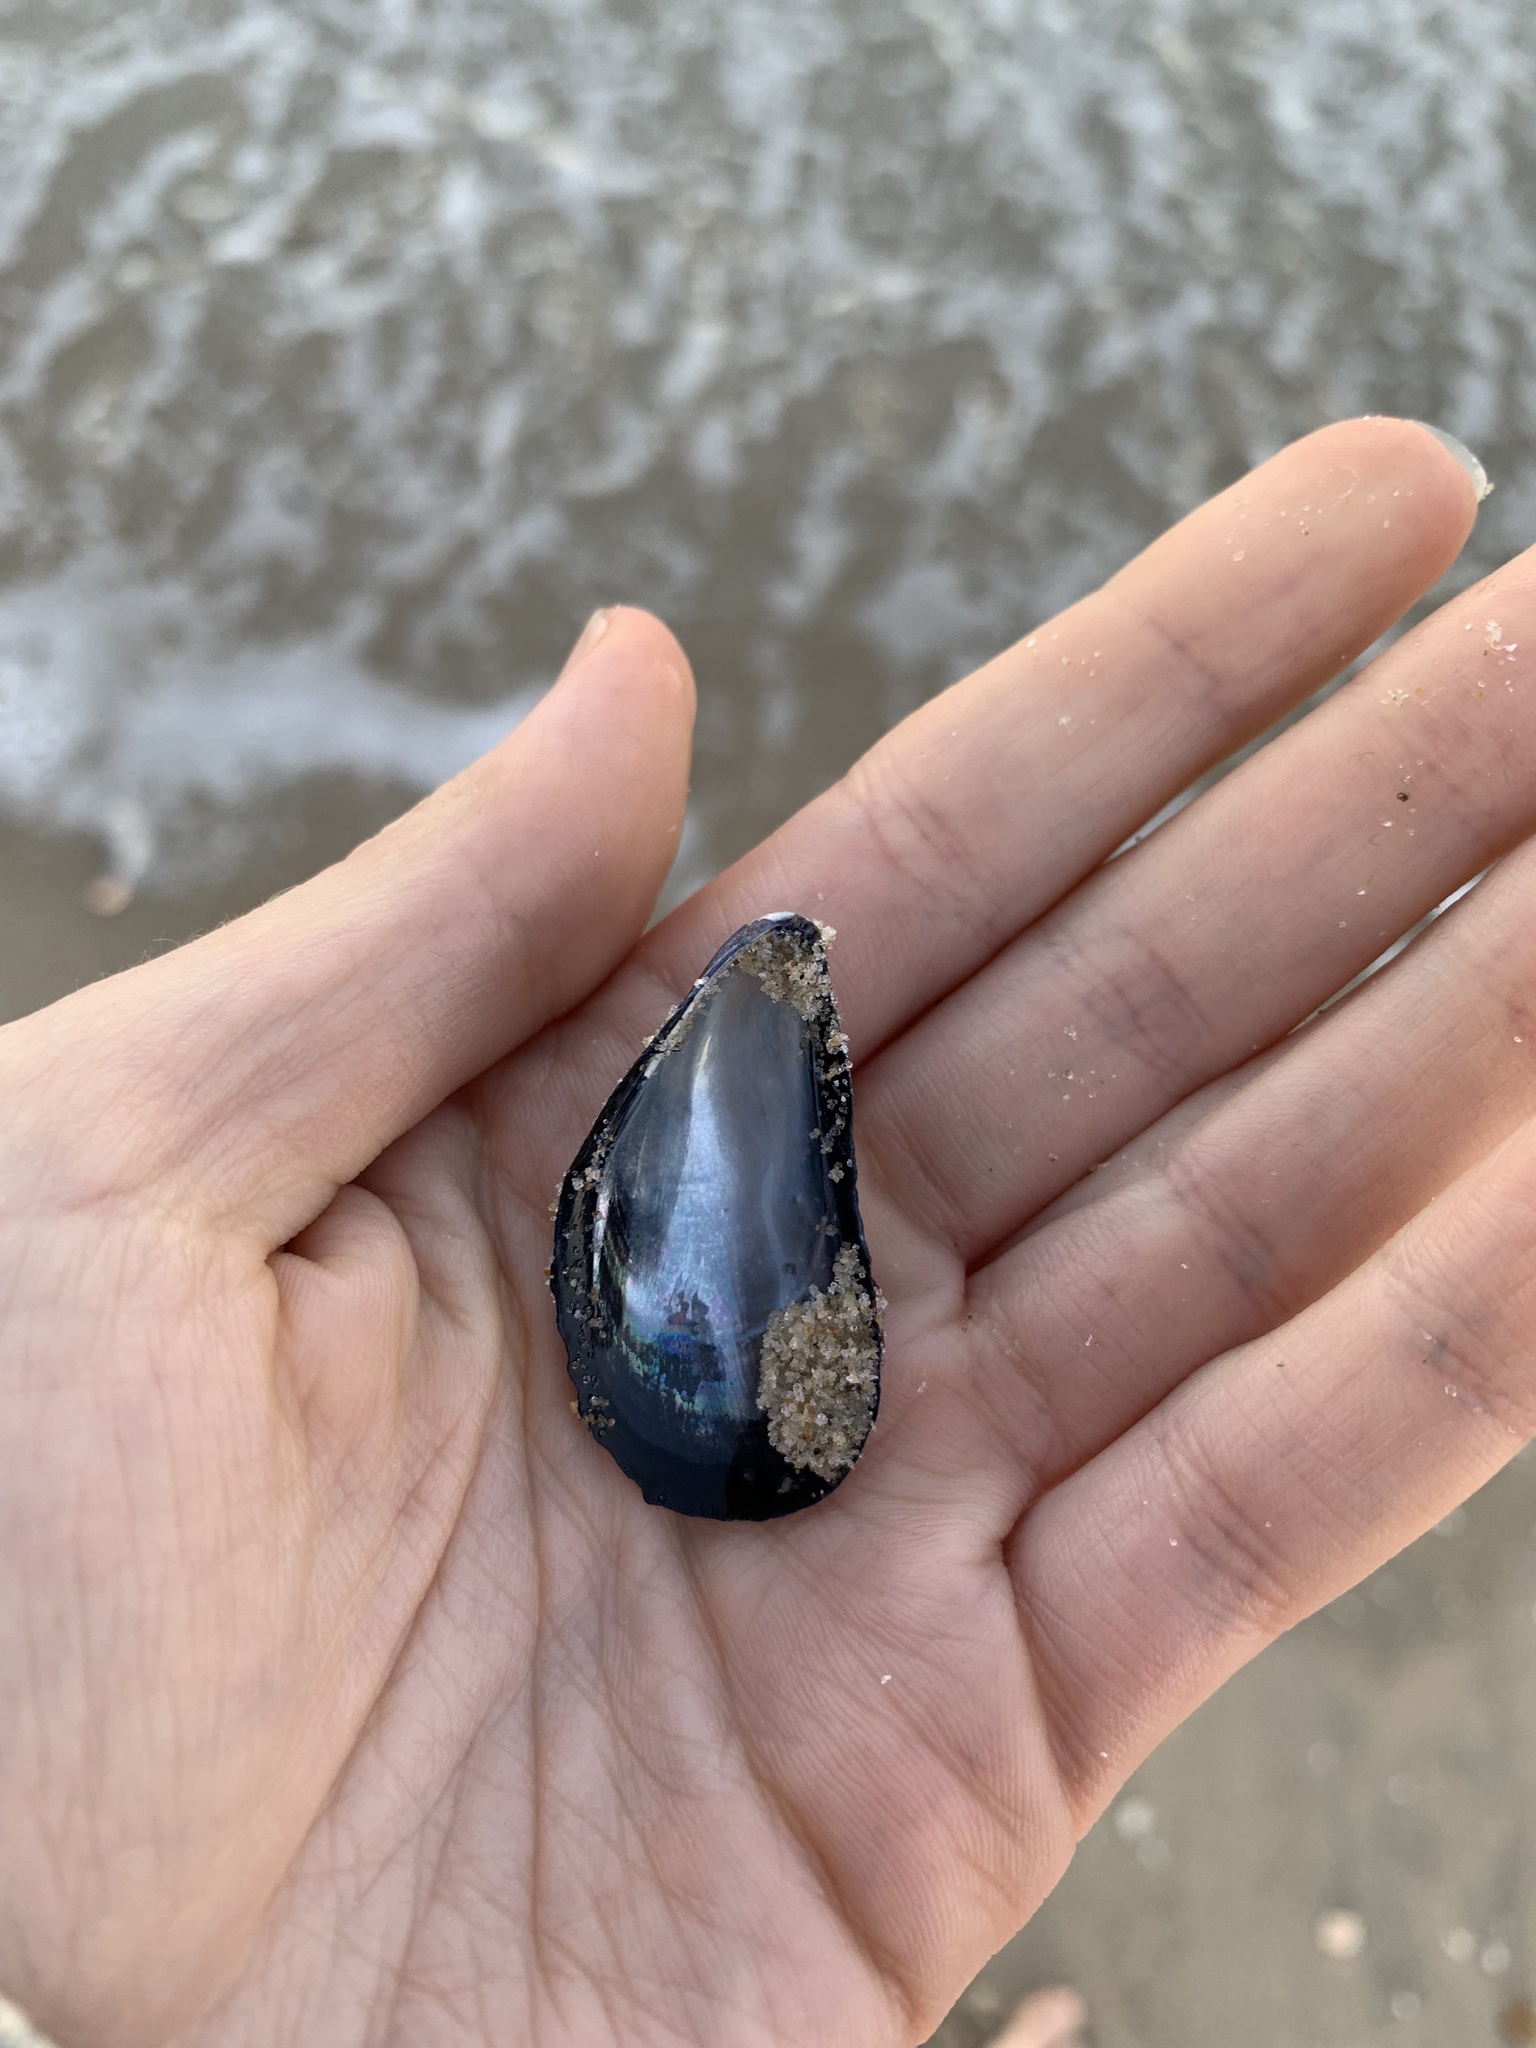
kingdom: Animalia
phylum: Mollusca
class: Bivalvia
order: Mytilida
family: Mytilidae
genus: Mytilus
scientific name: Mytilus edulis
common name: Blue mussel
